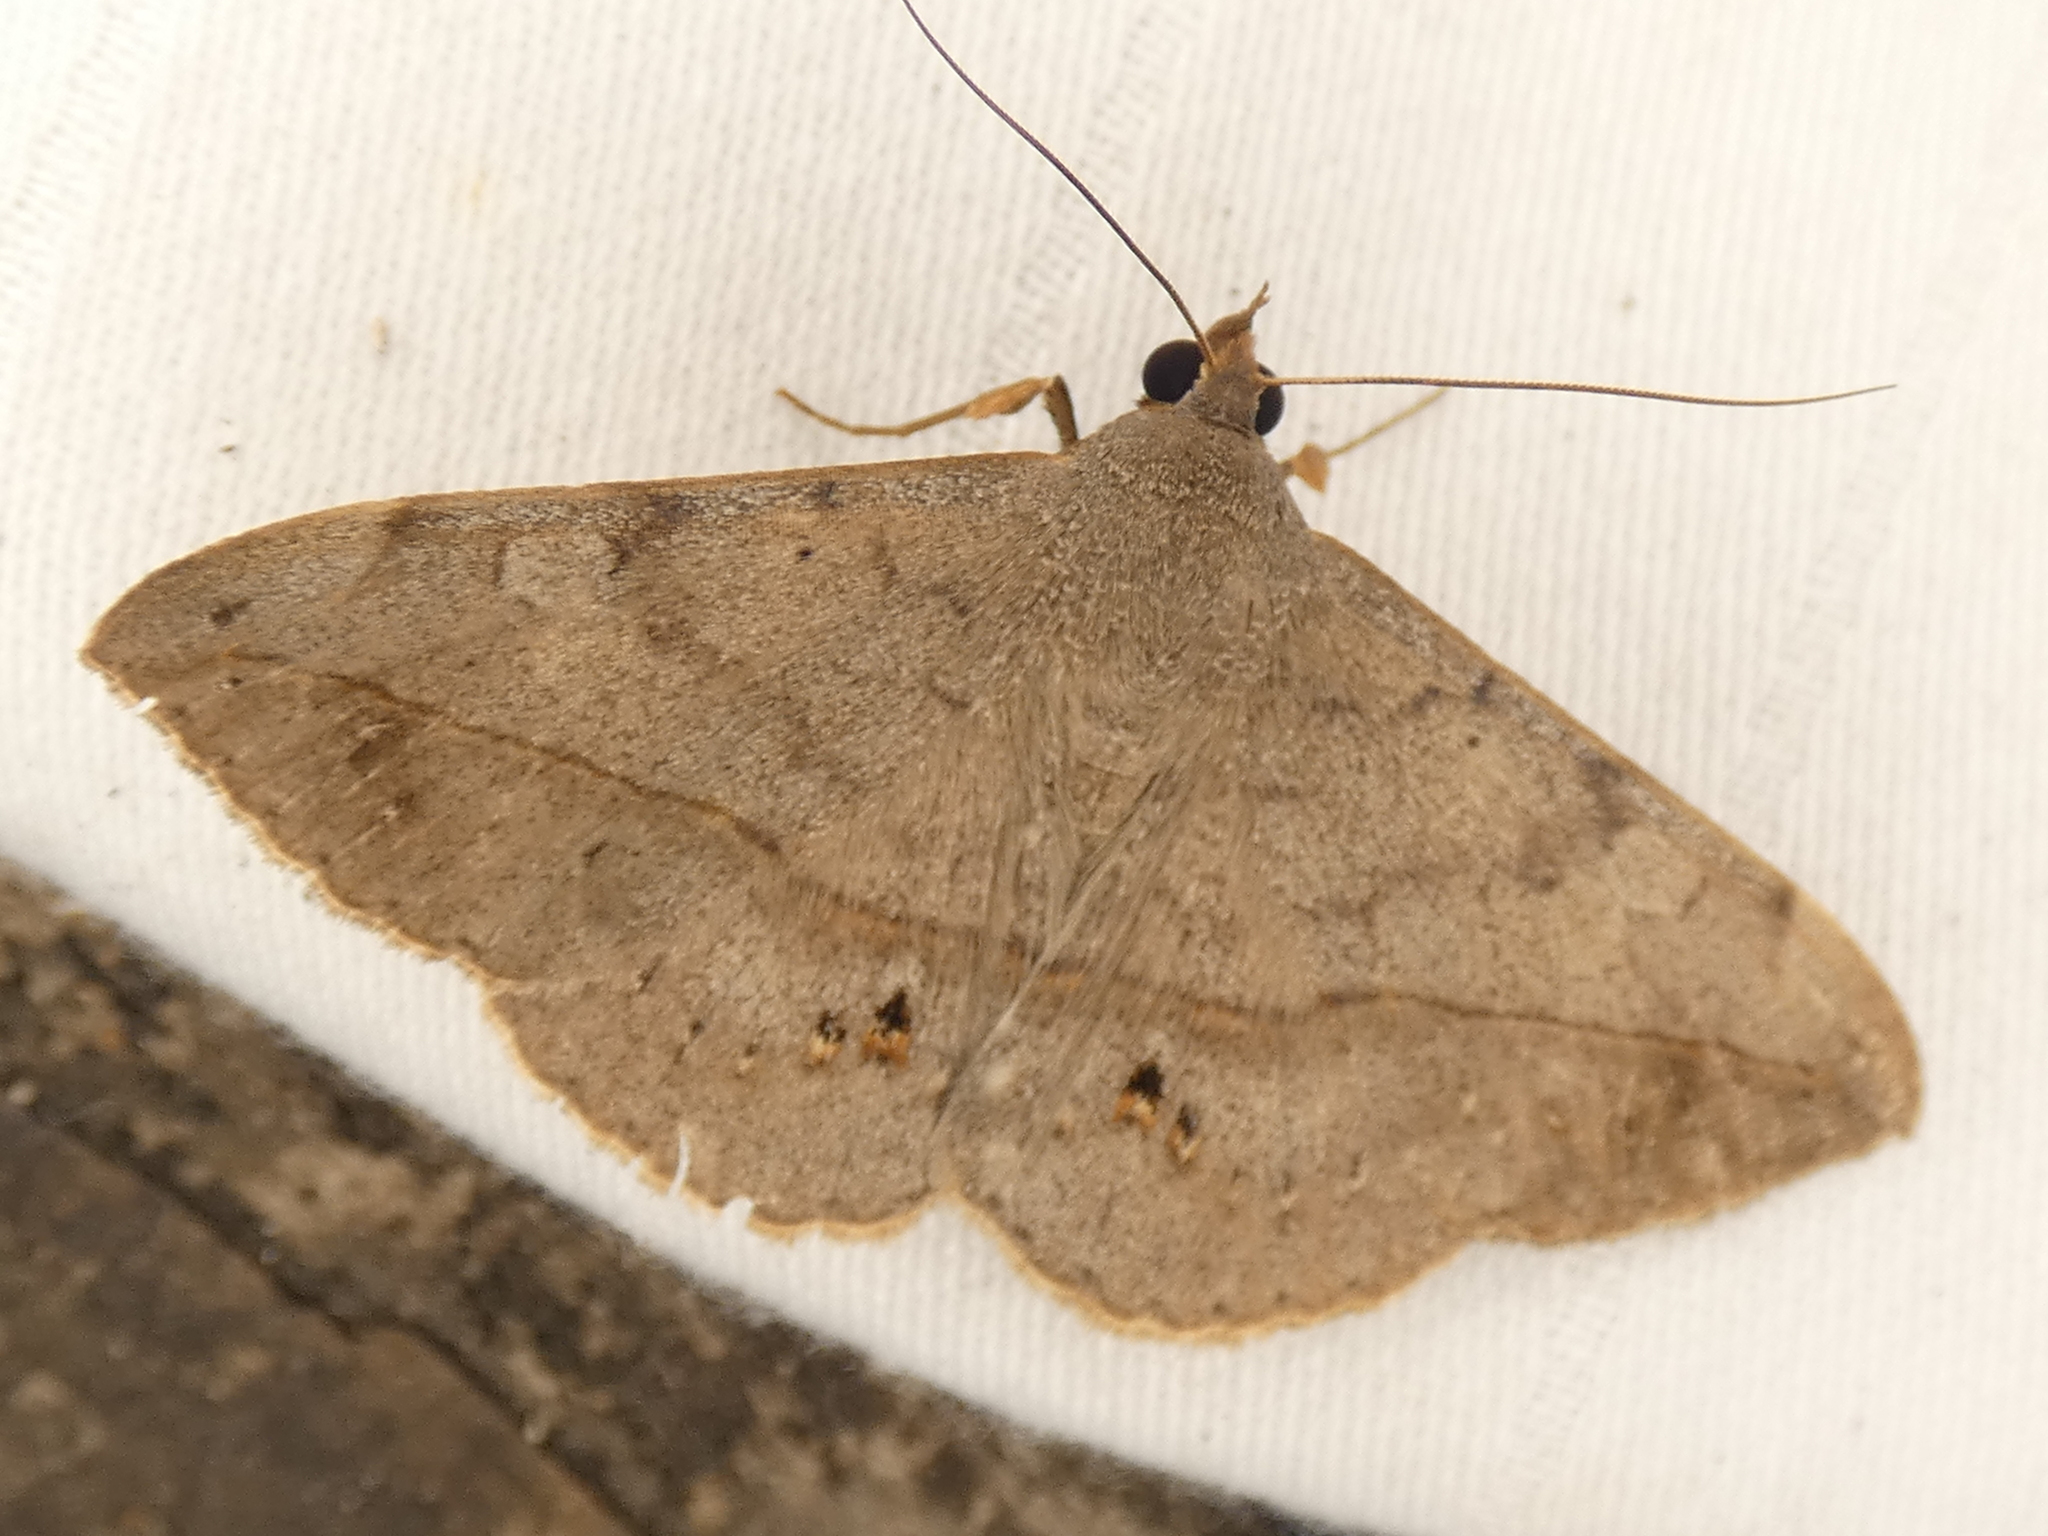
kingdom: Animalia
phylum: Arthropoda
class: Insecta
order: Lepidoptera
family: Erebidae
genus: Anticarsia
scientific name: Anticarsia gemmatalis
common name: Cutworm moth
